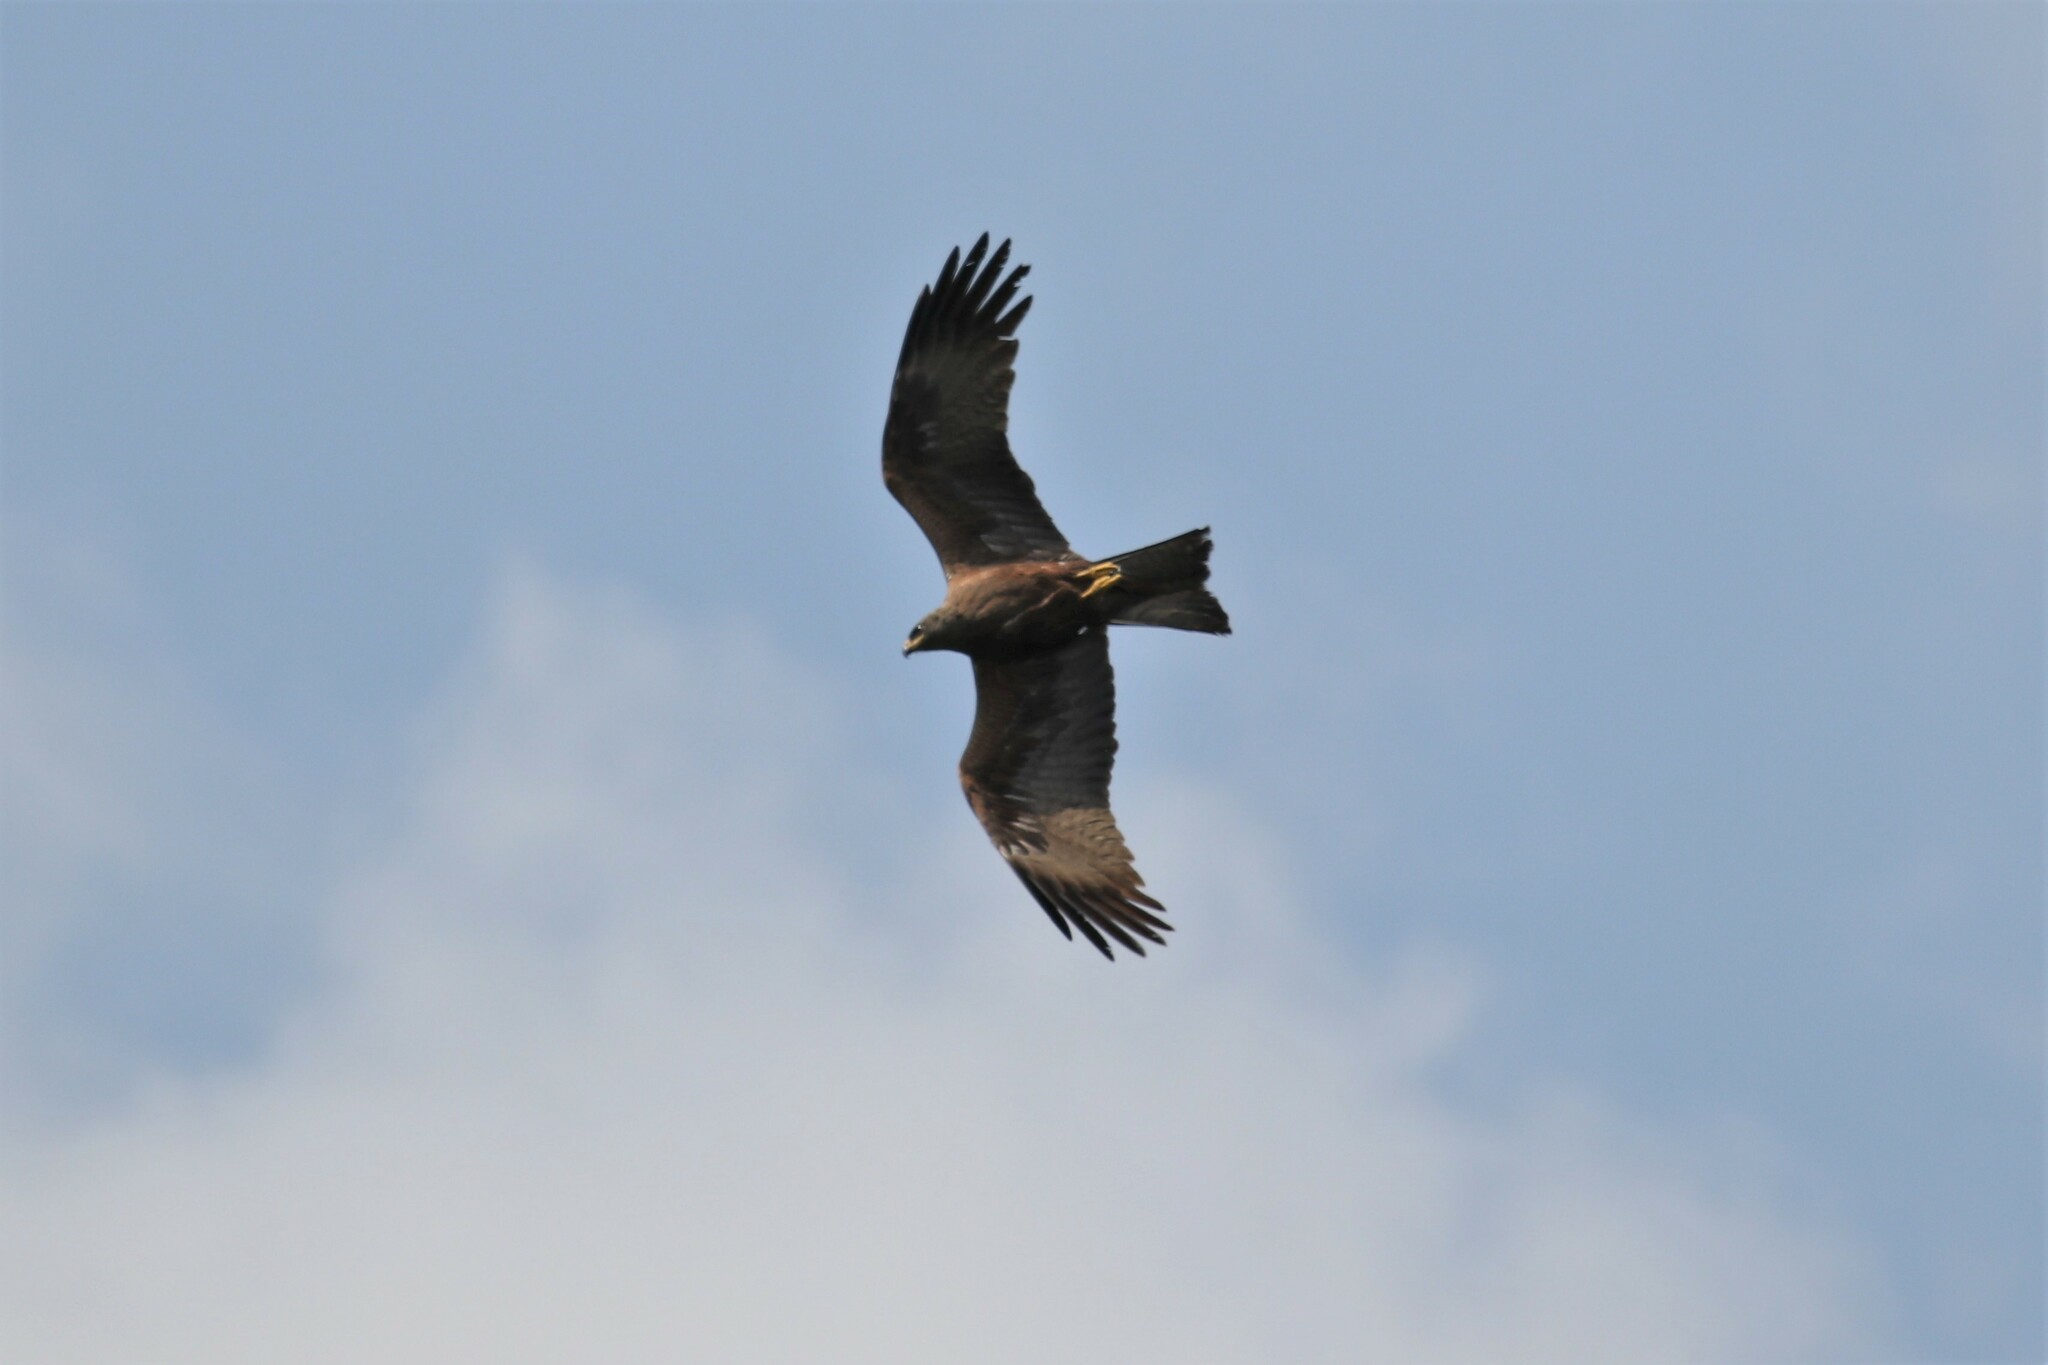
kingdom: Animalia
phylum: Chordata
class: Aves
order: Accipitriformes
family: Accipitridae
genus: Milvus
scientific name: Milvus migrans
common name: Black kite
